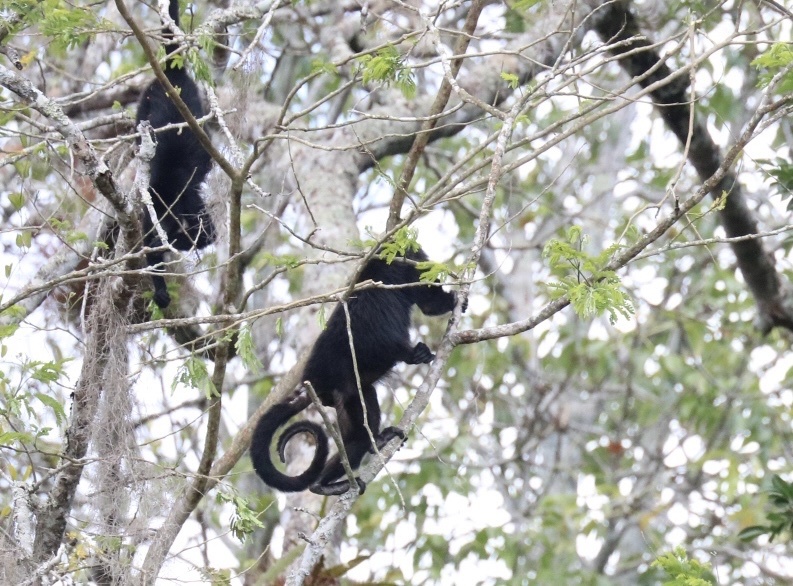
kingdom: Animalia
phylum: Chordata
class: Mammalia
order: Primates
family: Atelidae
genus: Alouatta
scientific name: Alouatta pigra
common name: Guatemalan black howler
